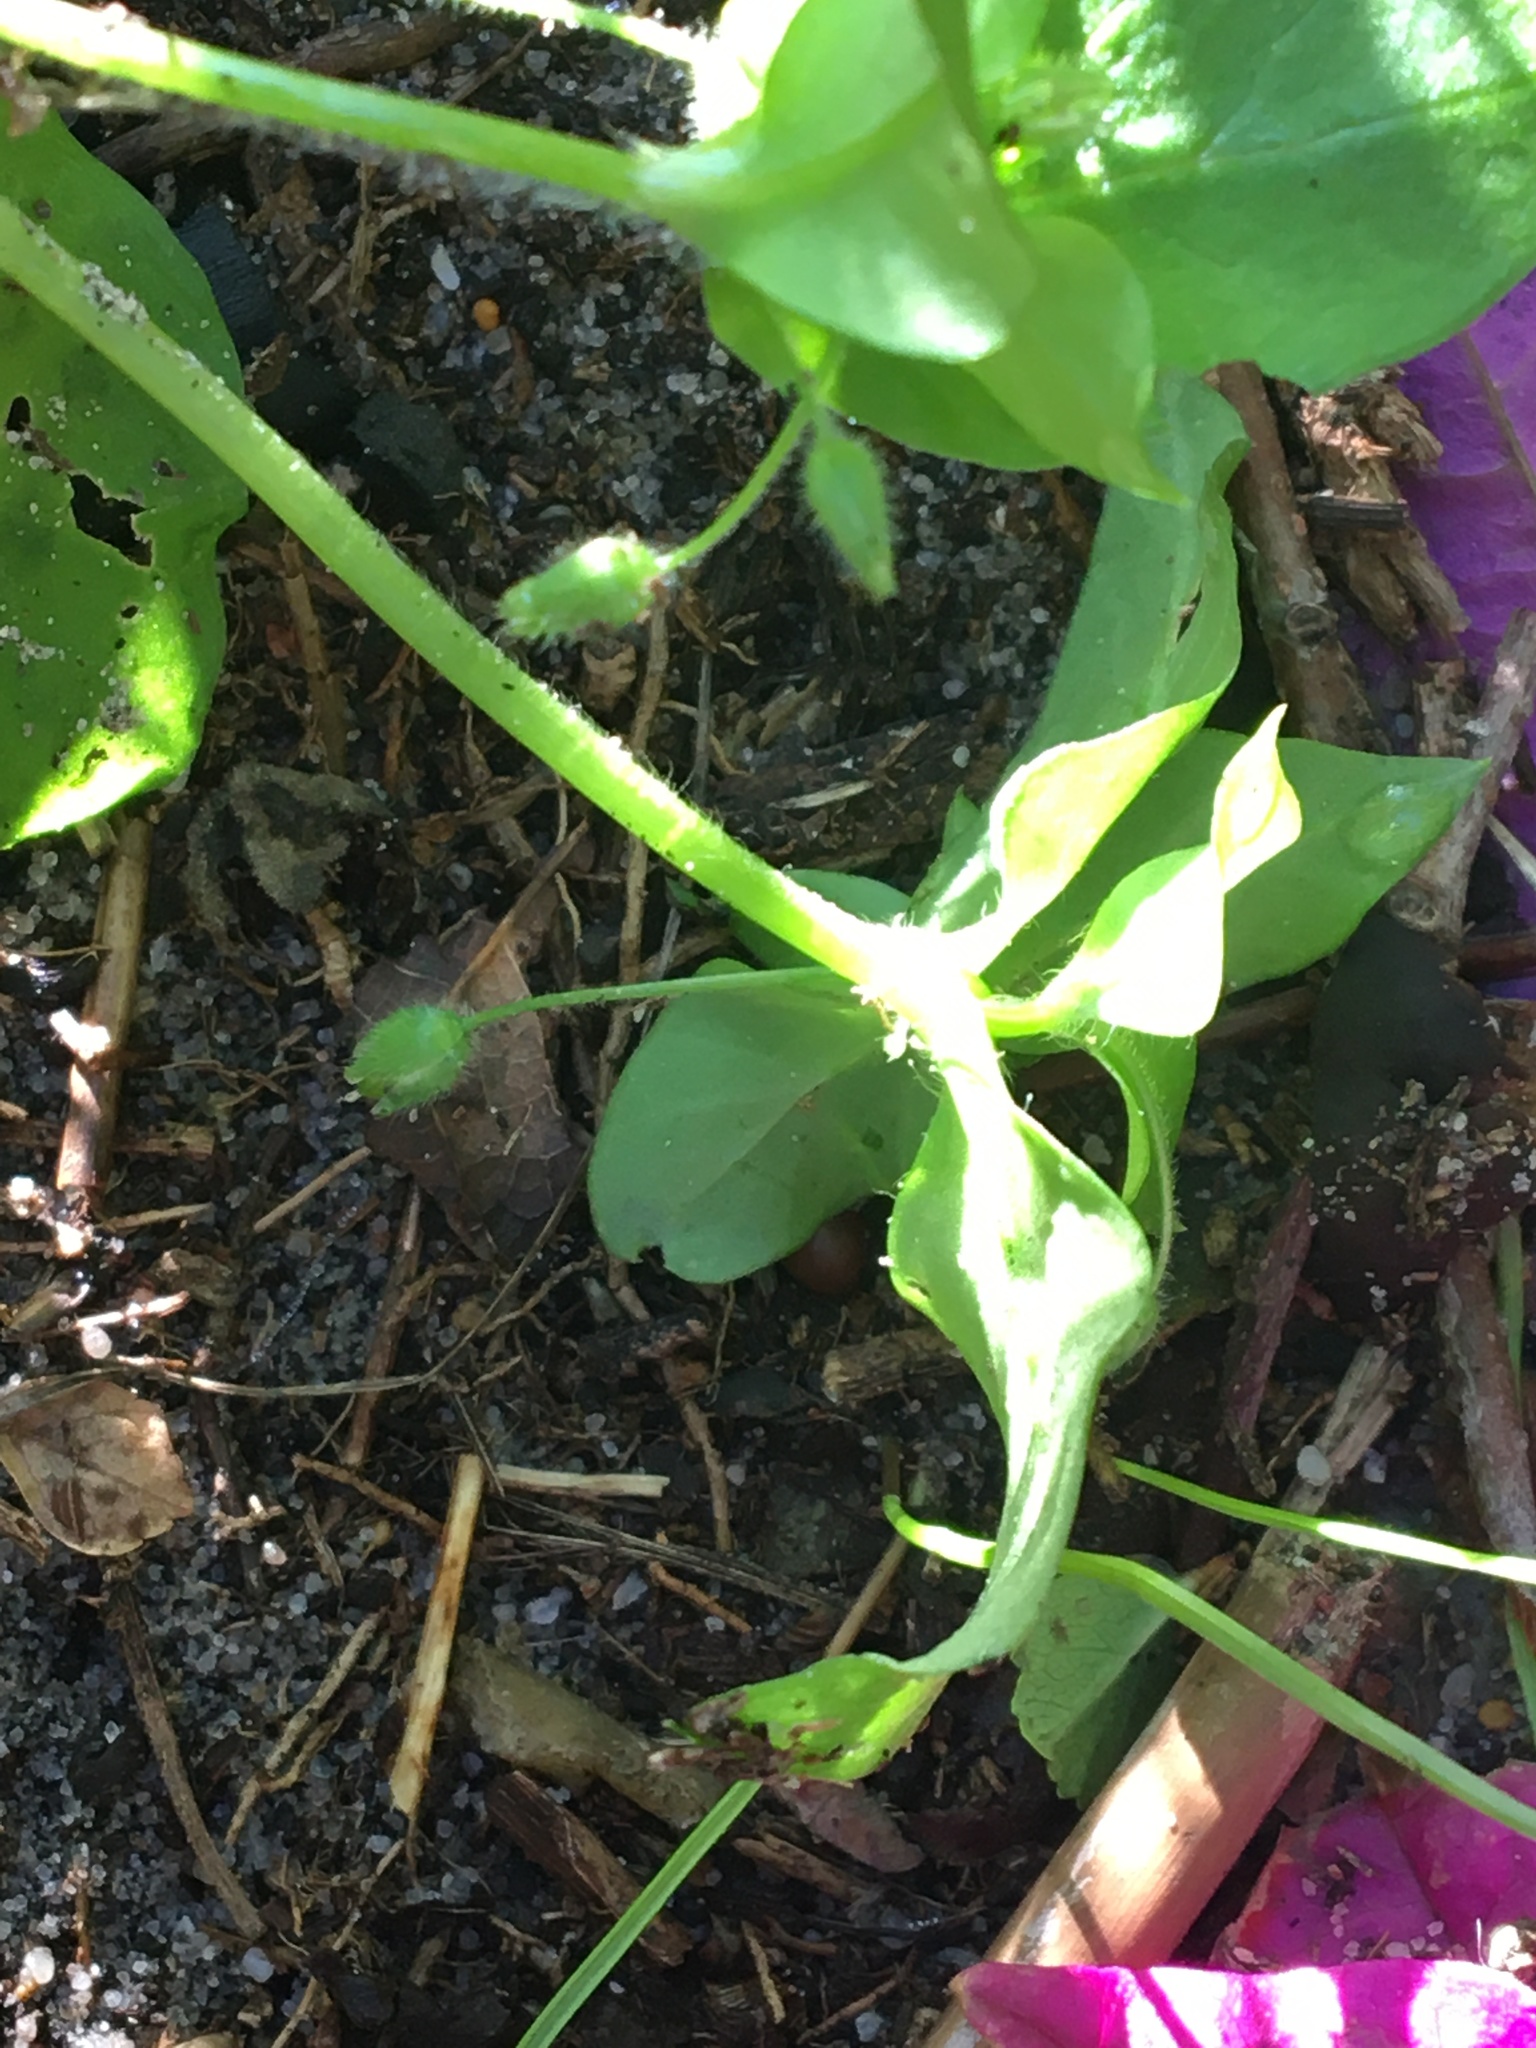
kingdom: Plantae
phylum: Tracheophyta
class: Magnoliopsida
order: Caryophyllales
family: Caryophyllaceae
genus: Stellaria
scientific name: Stellaria media
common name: Common chickweed
